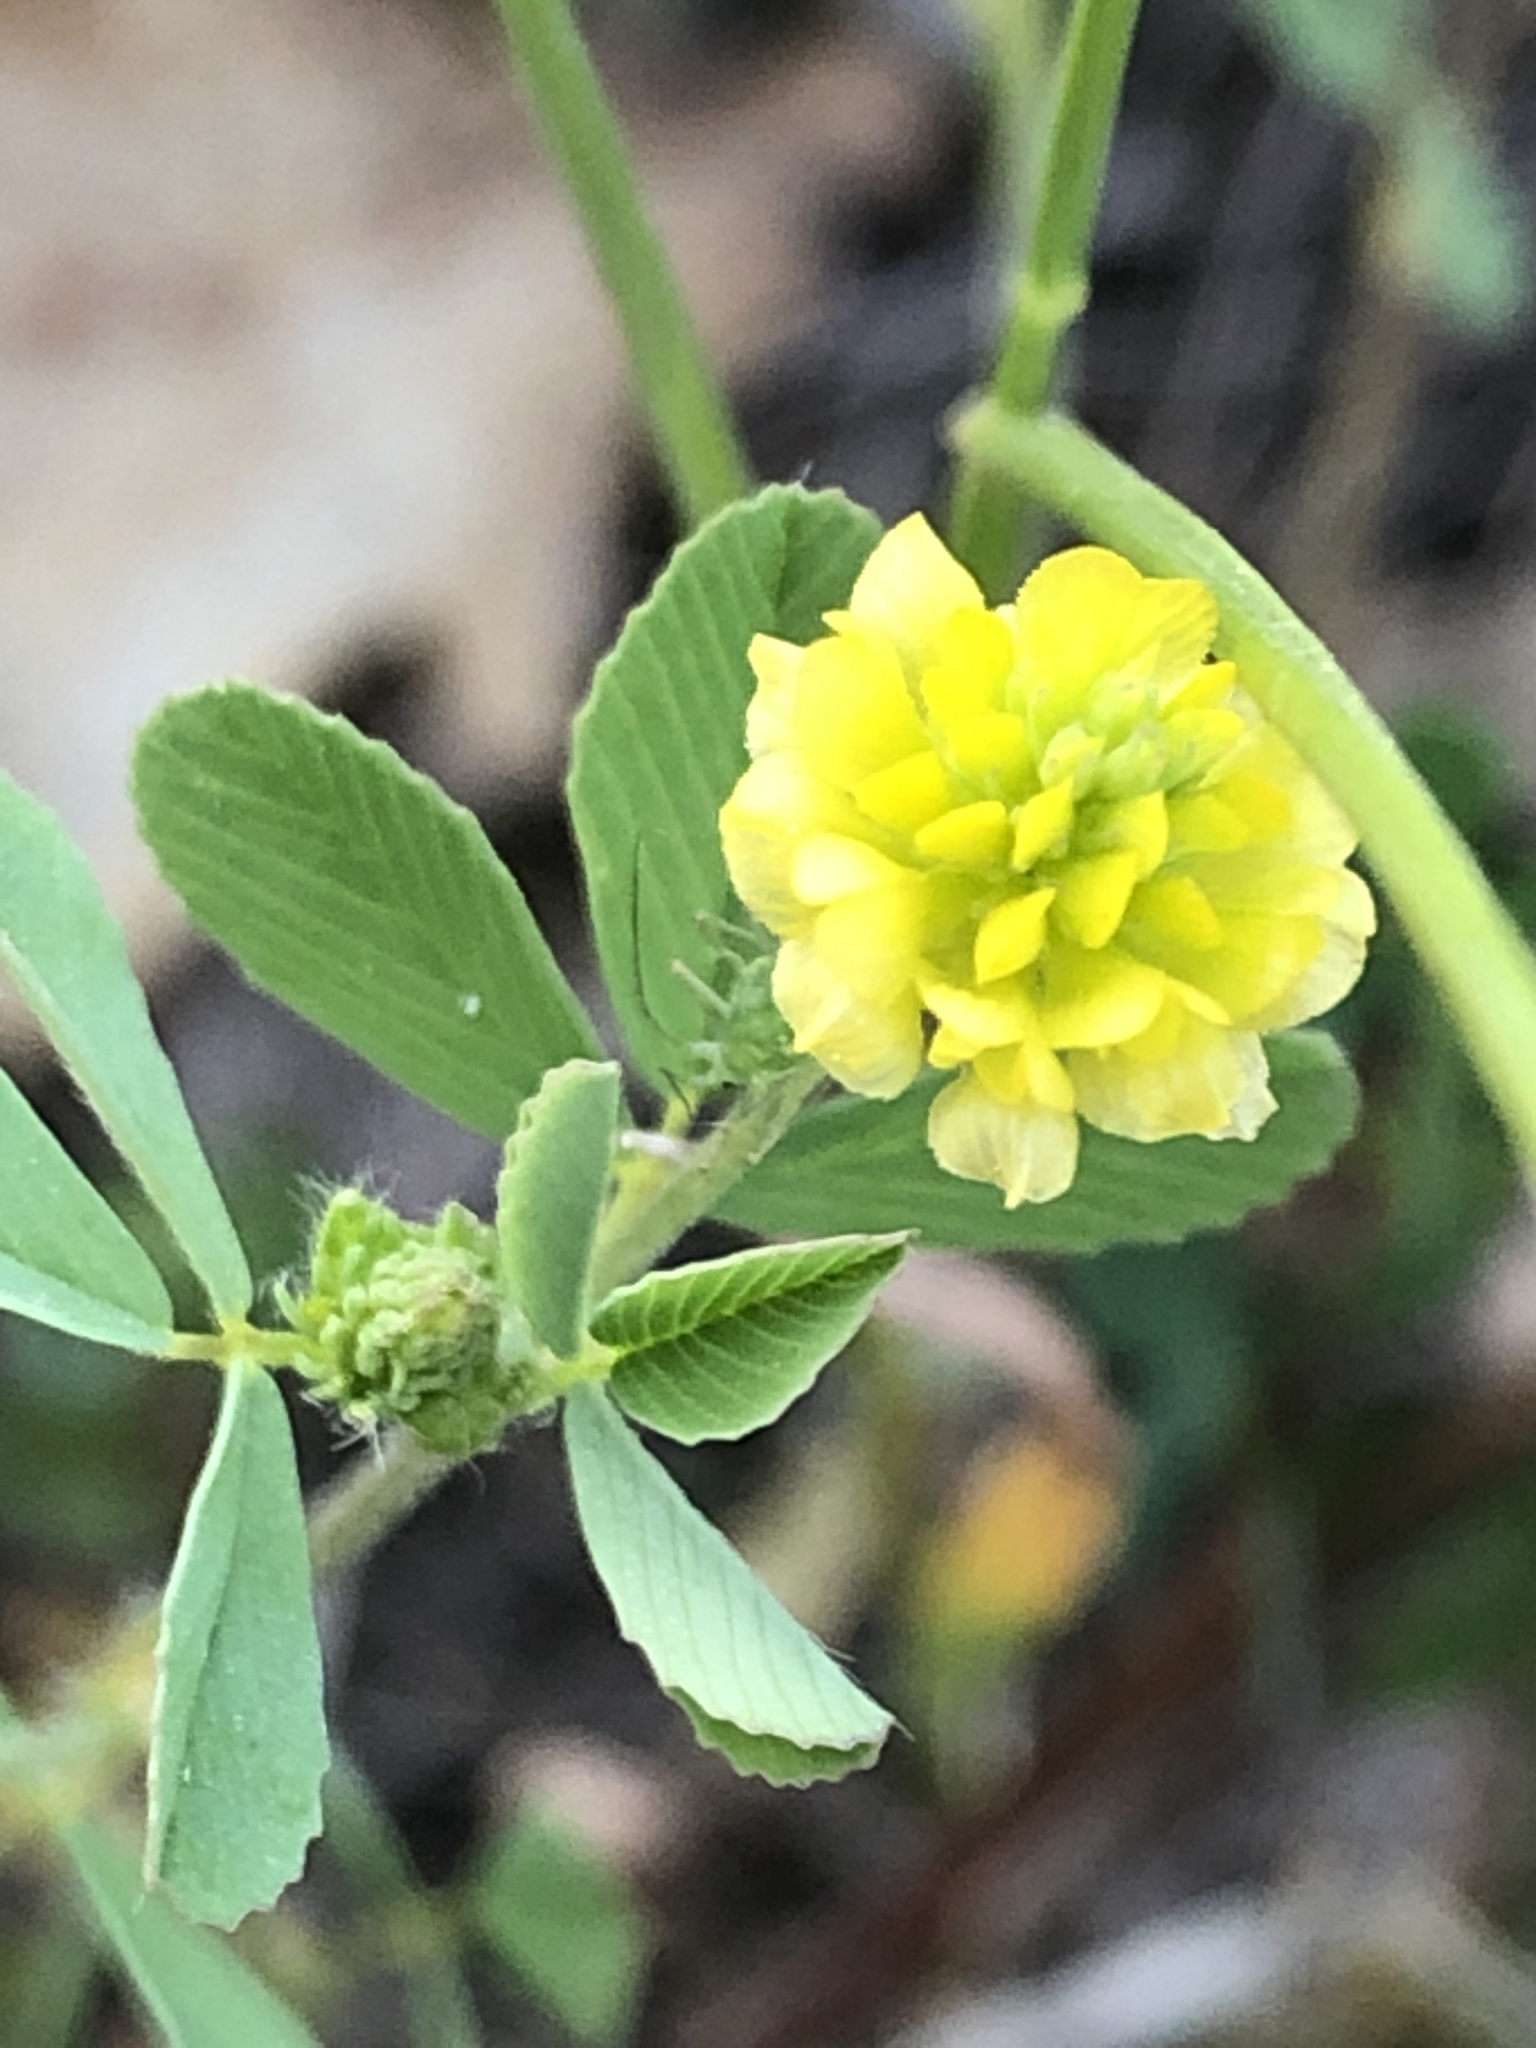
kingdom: Plantae
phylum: Tracheophyta
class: Magnoliopsida
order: Fabales
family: Fabaceae
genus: Trifolium
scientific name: Trifolium campestre
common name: Field clover
